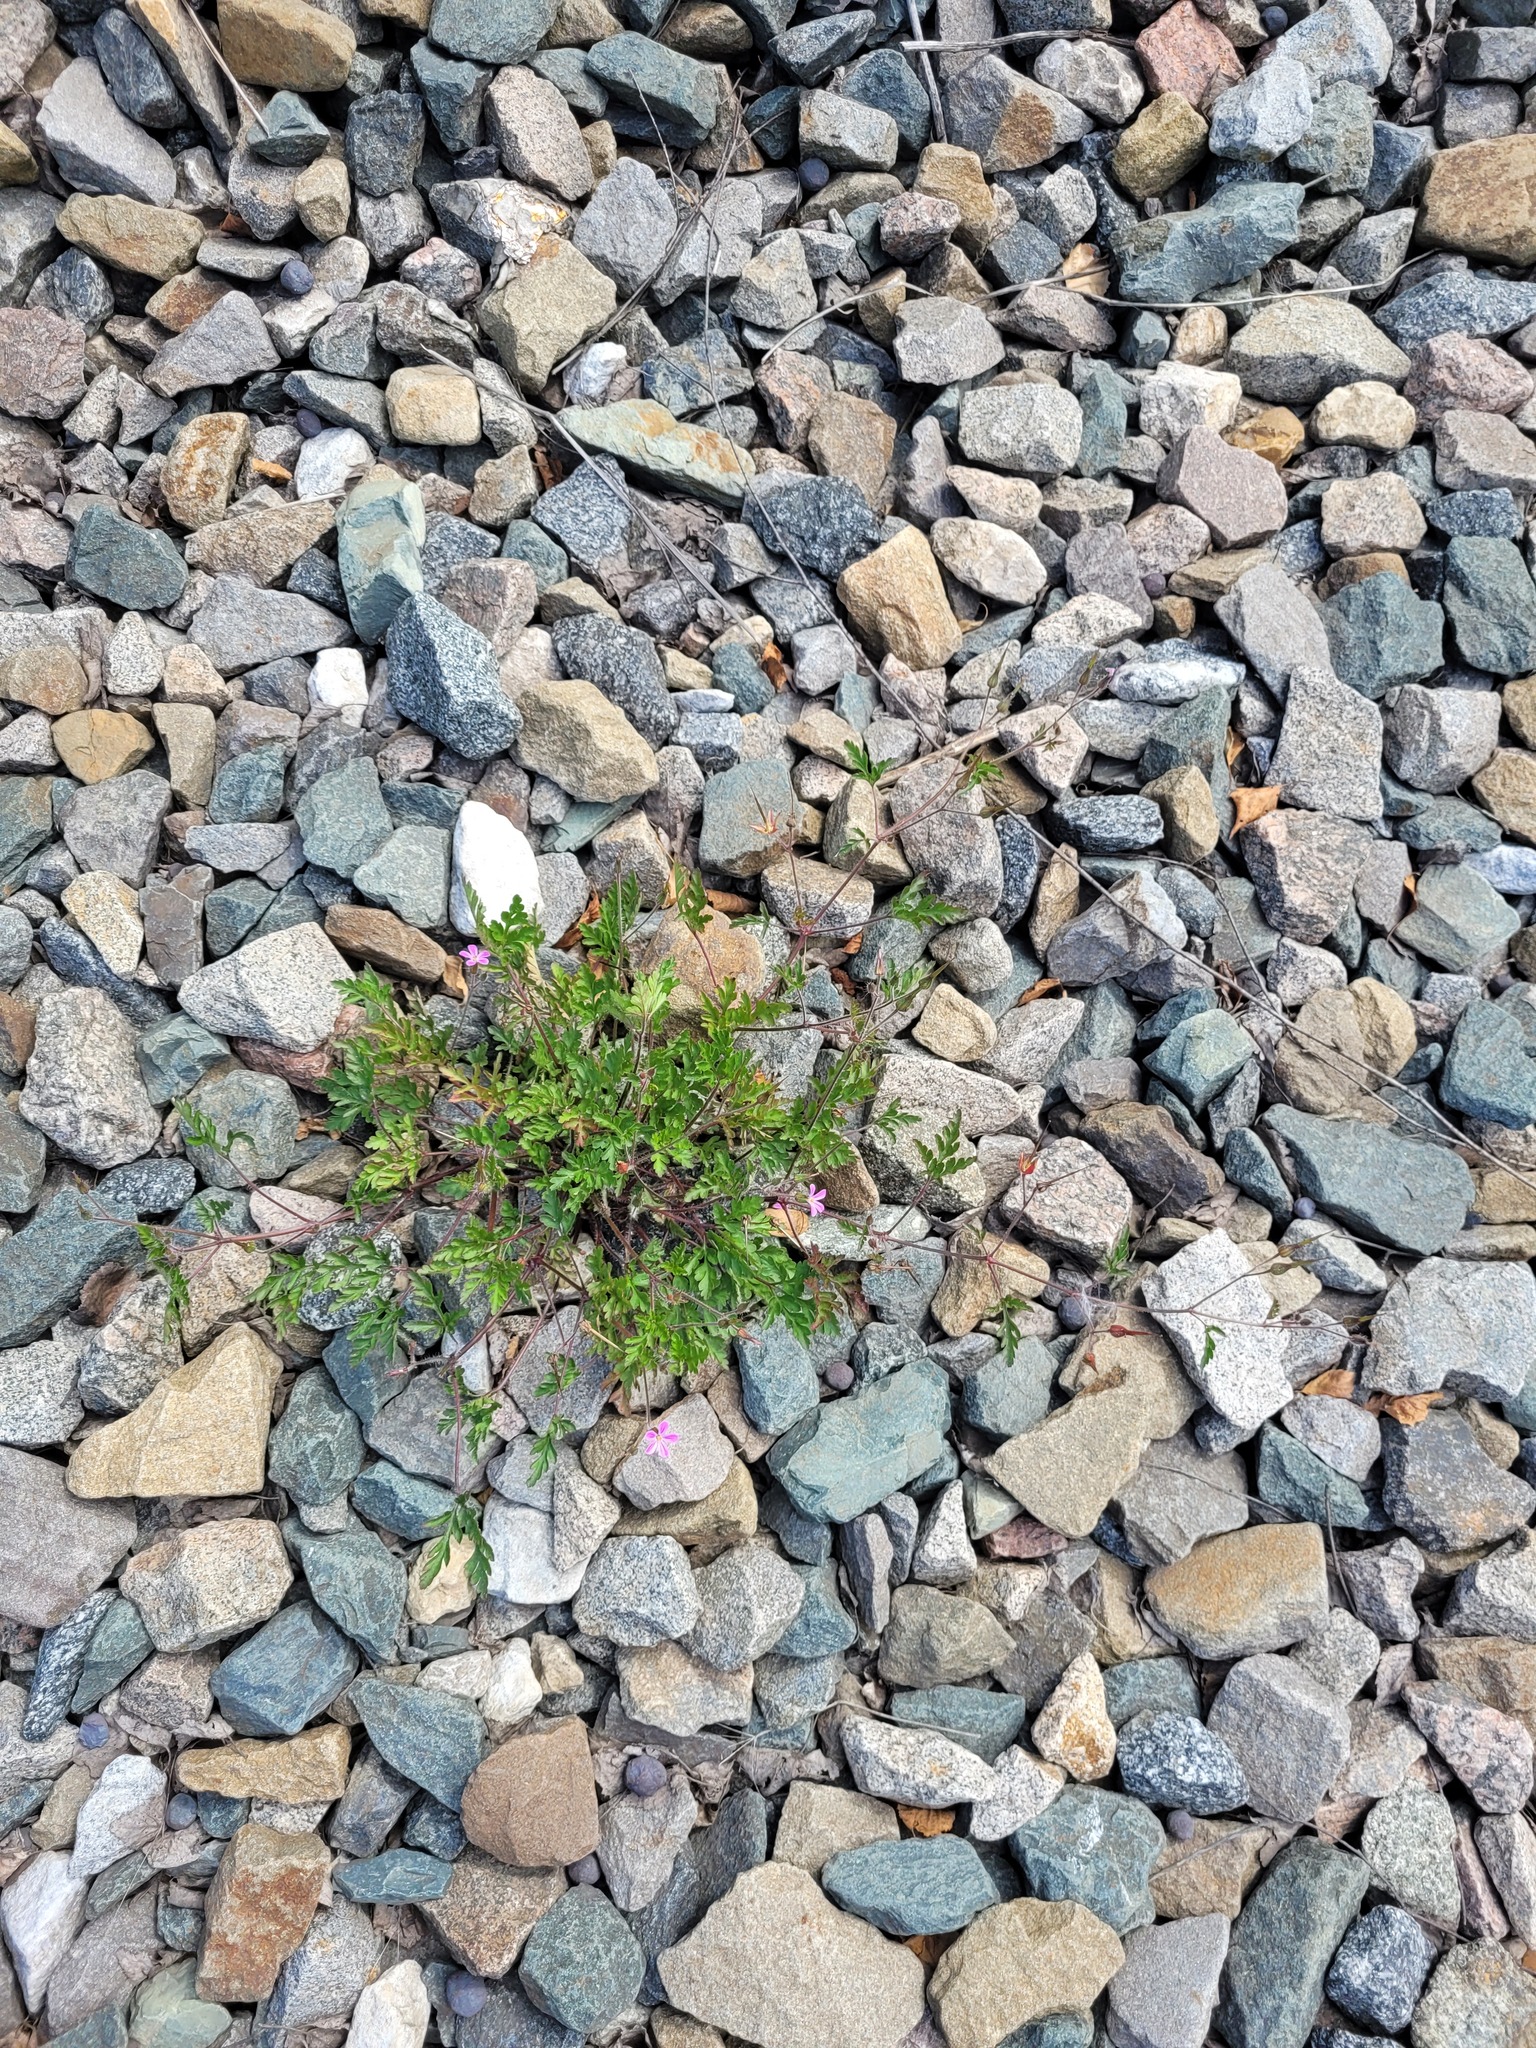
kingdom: Plantae
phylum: Tracheophyta
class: Magnoliopsida
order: Geraniales
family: Geraniaceae
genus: Geranium
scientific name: Geranium robertianum
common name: Herb-robert
